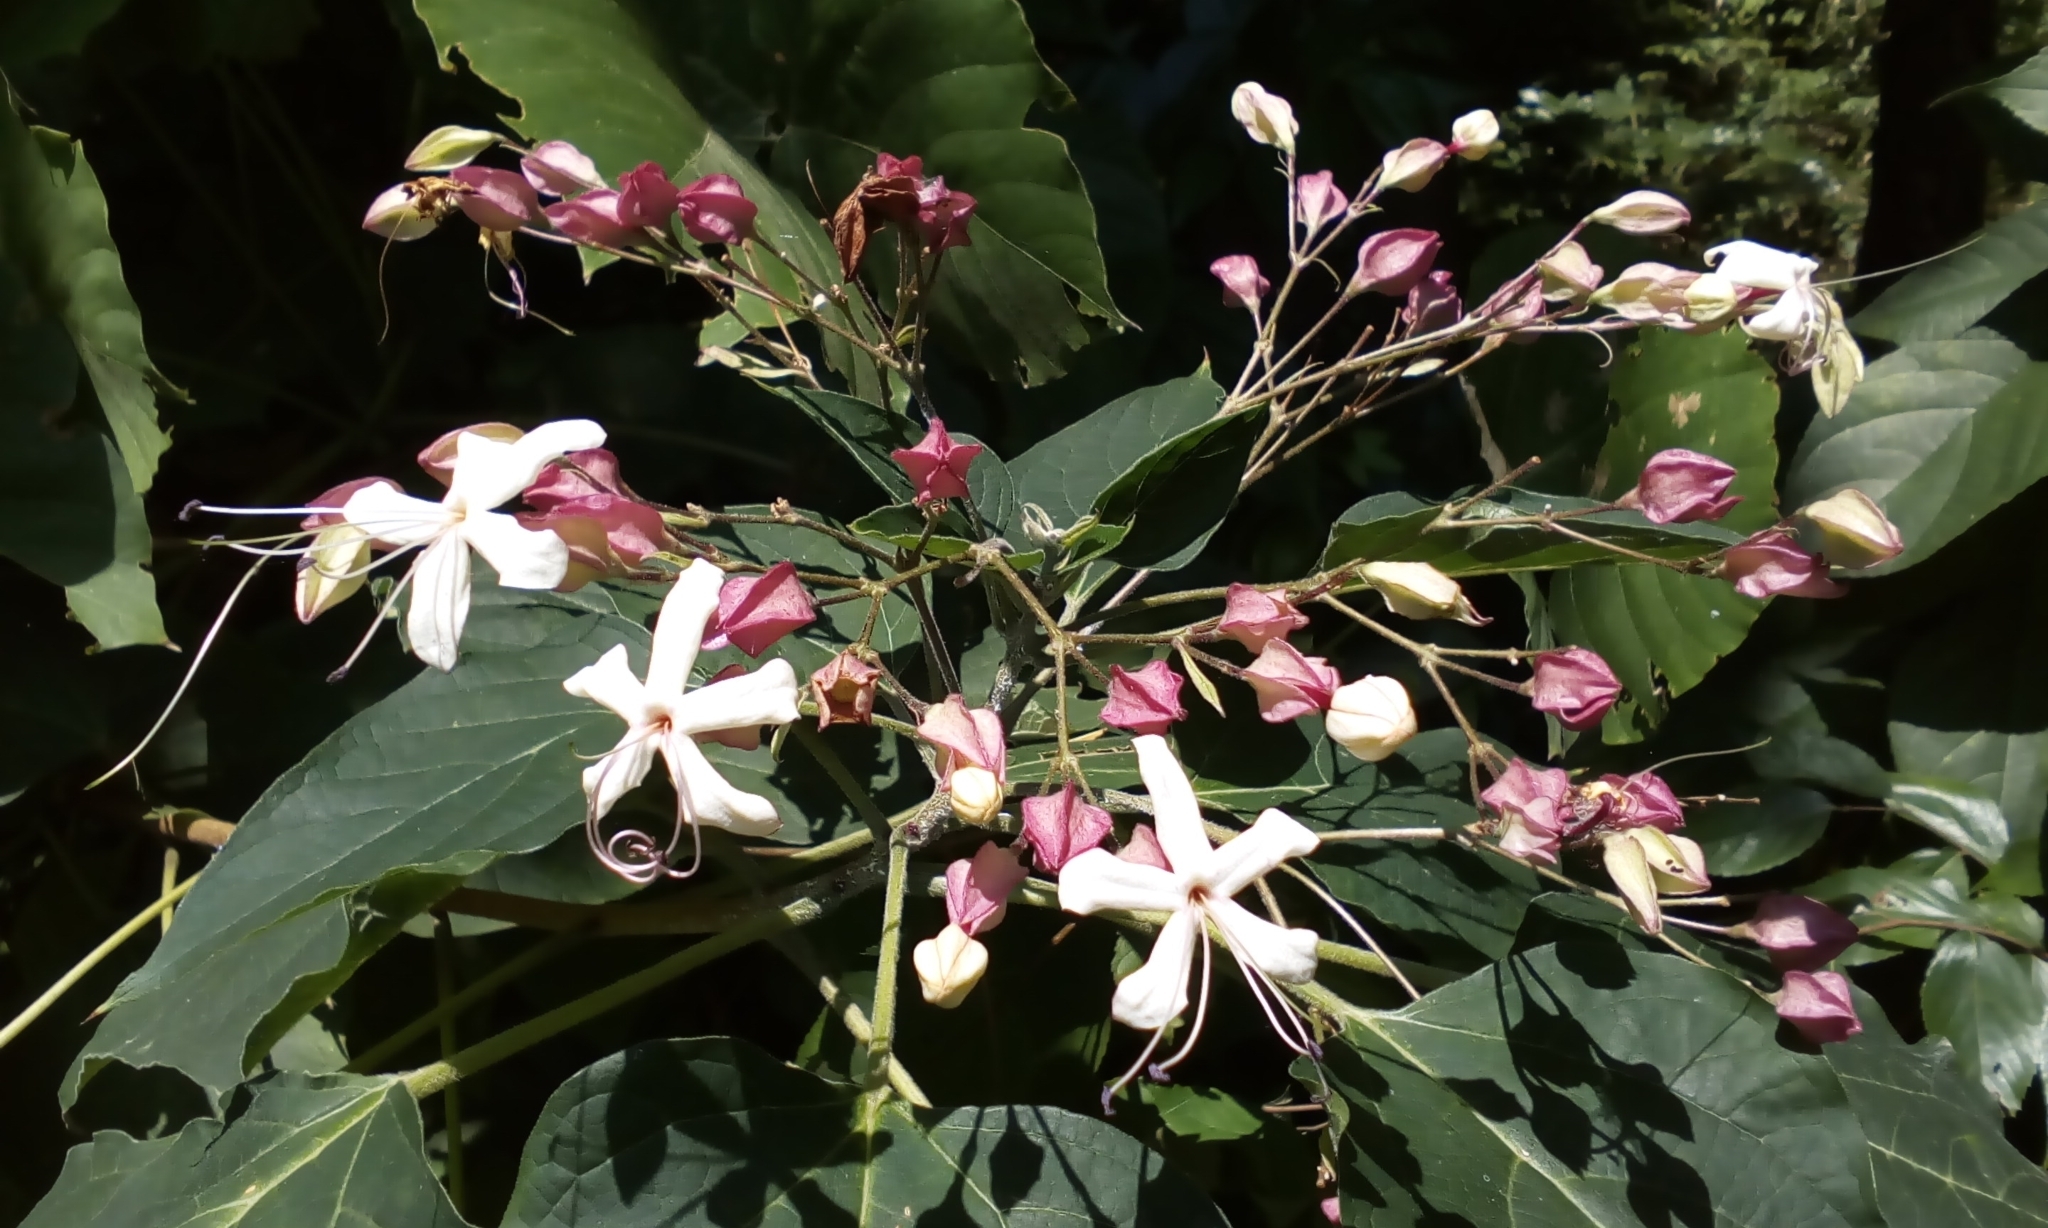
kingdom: Plantae
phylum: Tracheophyta
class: Magnoliopsida
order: Lamiales
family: Lamiaceae
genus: Clerodendrum
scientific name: Clerodendrum trichotomum
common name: Harlequin glorybower
